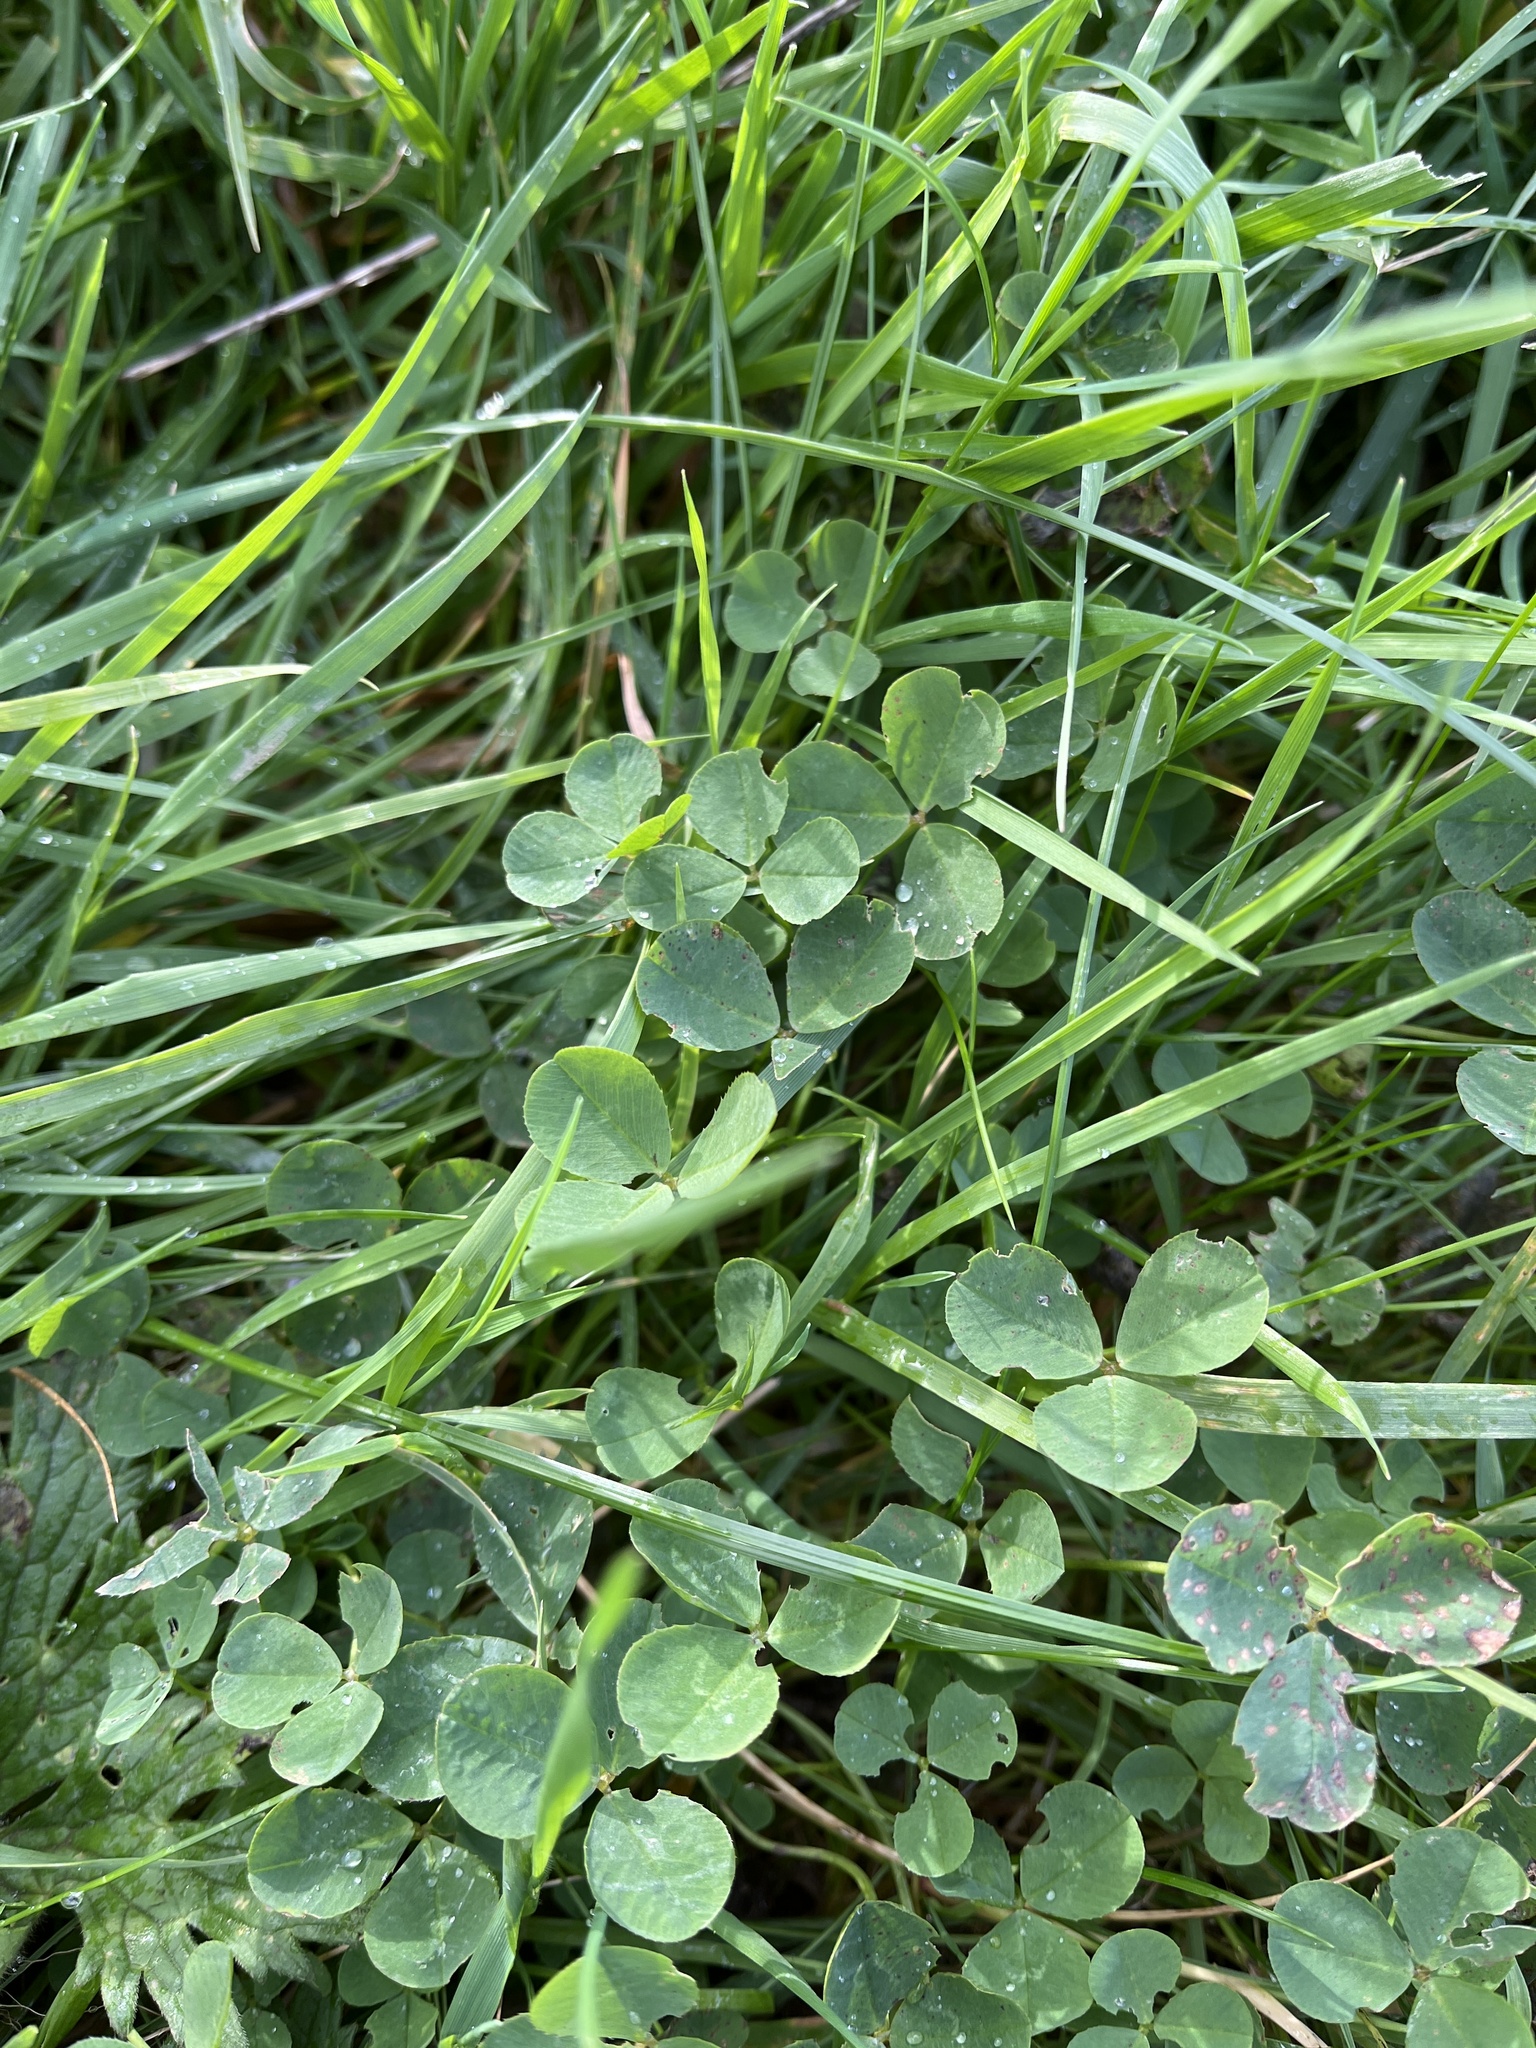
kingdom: Plantae
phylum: Tracheophyta
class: Magnoliopsida
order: Fabales
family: Fabaceae
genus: Trifolium
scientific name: Trifolium repens
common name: White clover
